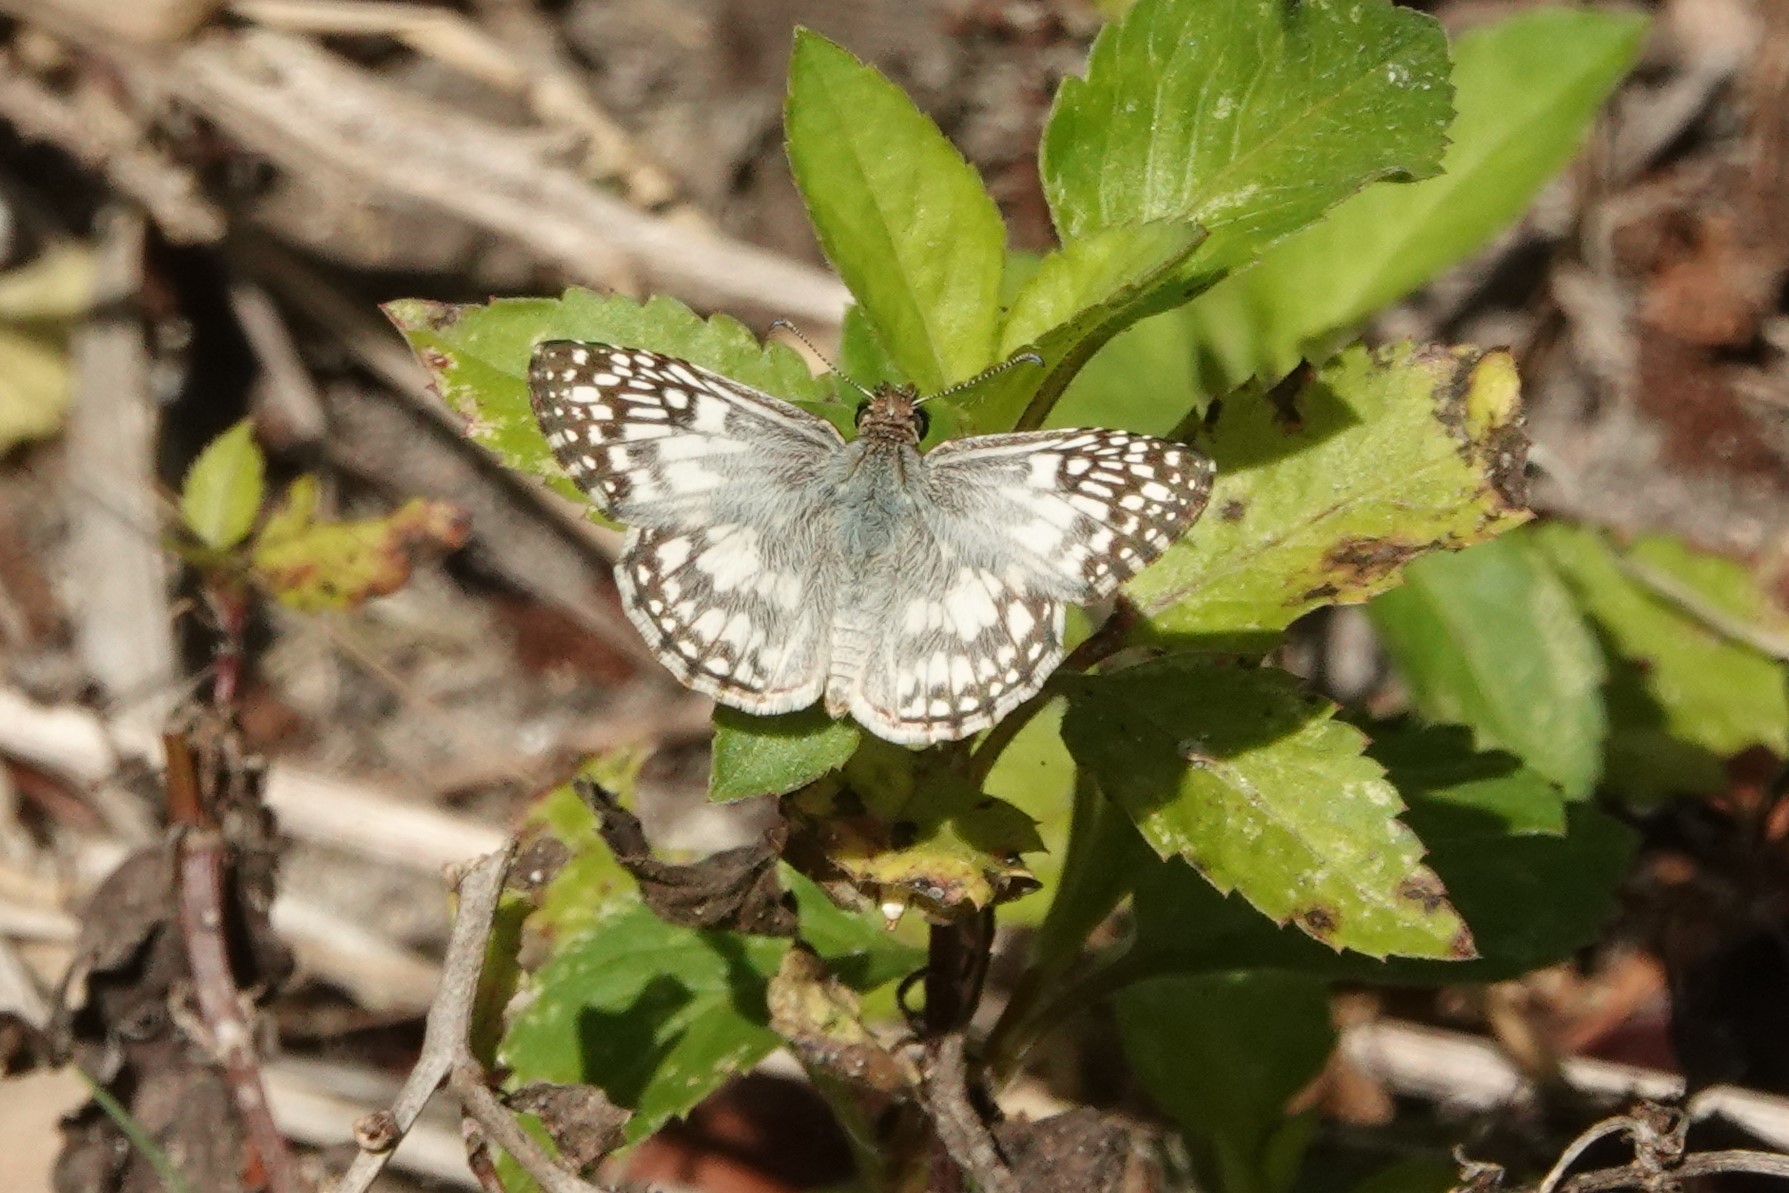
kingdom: Animalia
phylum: Arthropoda
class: Insecta
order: Lepidoptera
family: Hesperiidae
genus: Pyrgus
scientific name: Pyrgus oileus
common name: Tropical checkered-skipper
